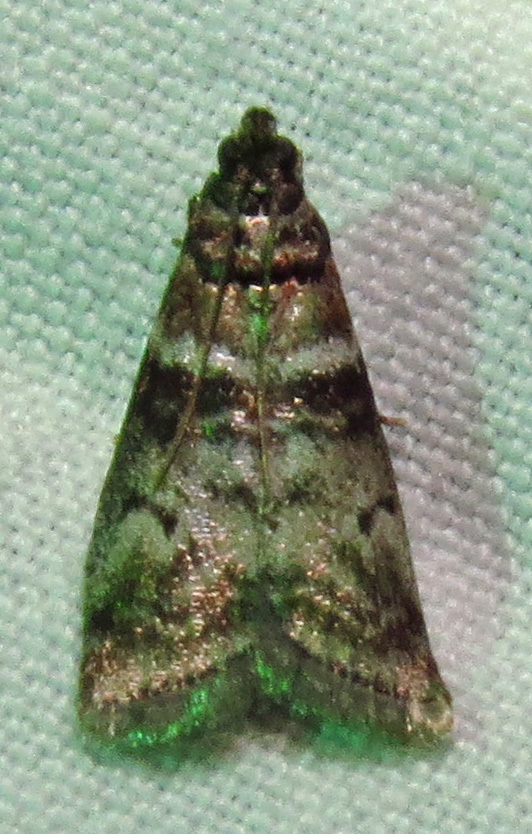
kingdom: Animalia
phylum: Arthropoda
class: Insecta
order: Lepidoptera
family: Pyralidae
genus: Sciota
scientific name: Sciota uvinella
